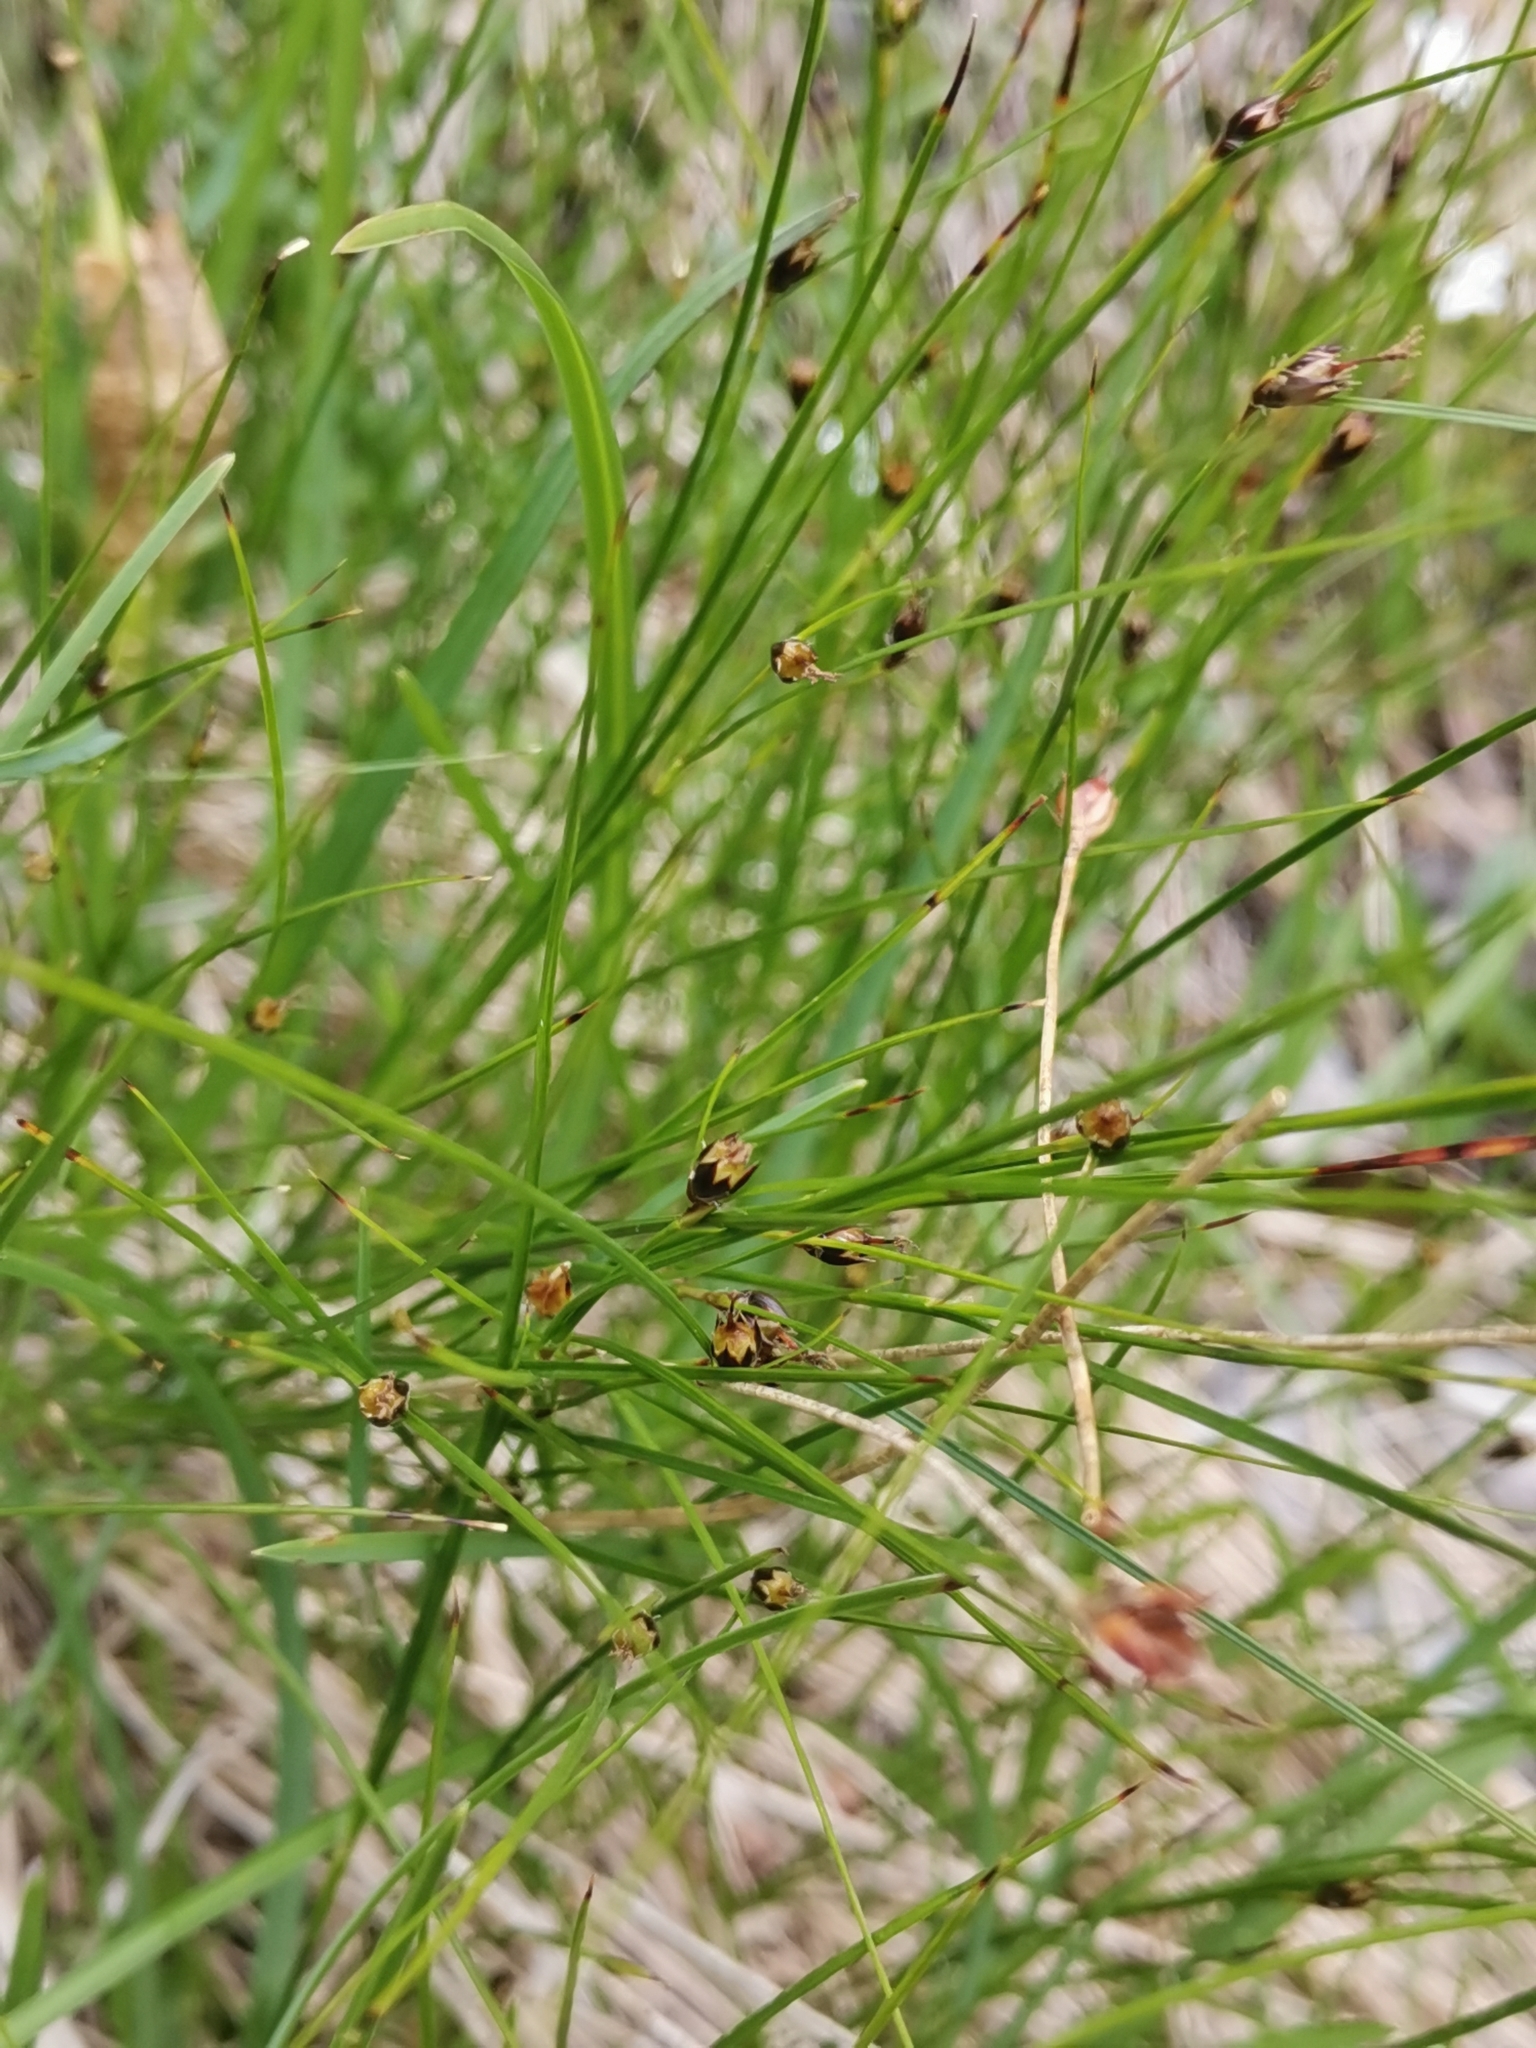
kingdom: Plantae
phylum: Tracheophyta
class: Liliopsida
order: Poales
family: Juncaceae
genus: Oreojuncus
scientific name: Oreojuncus monanthos
